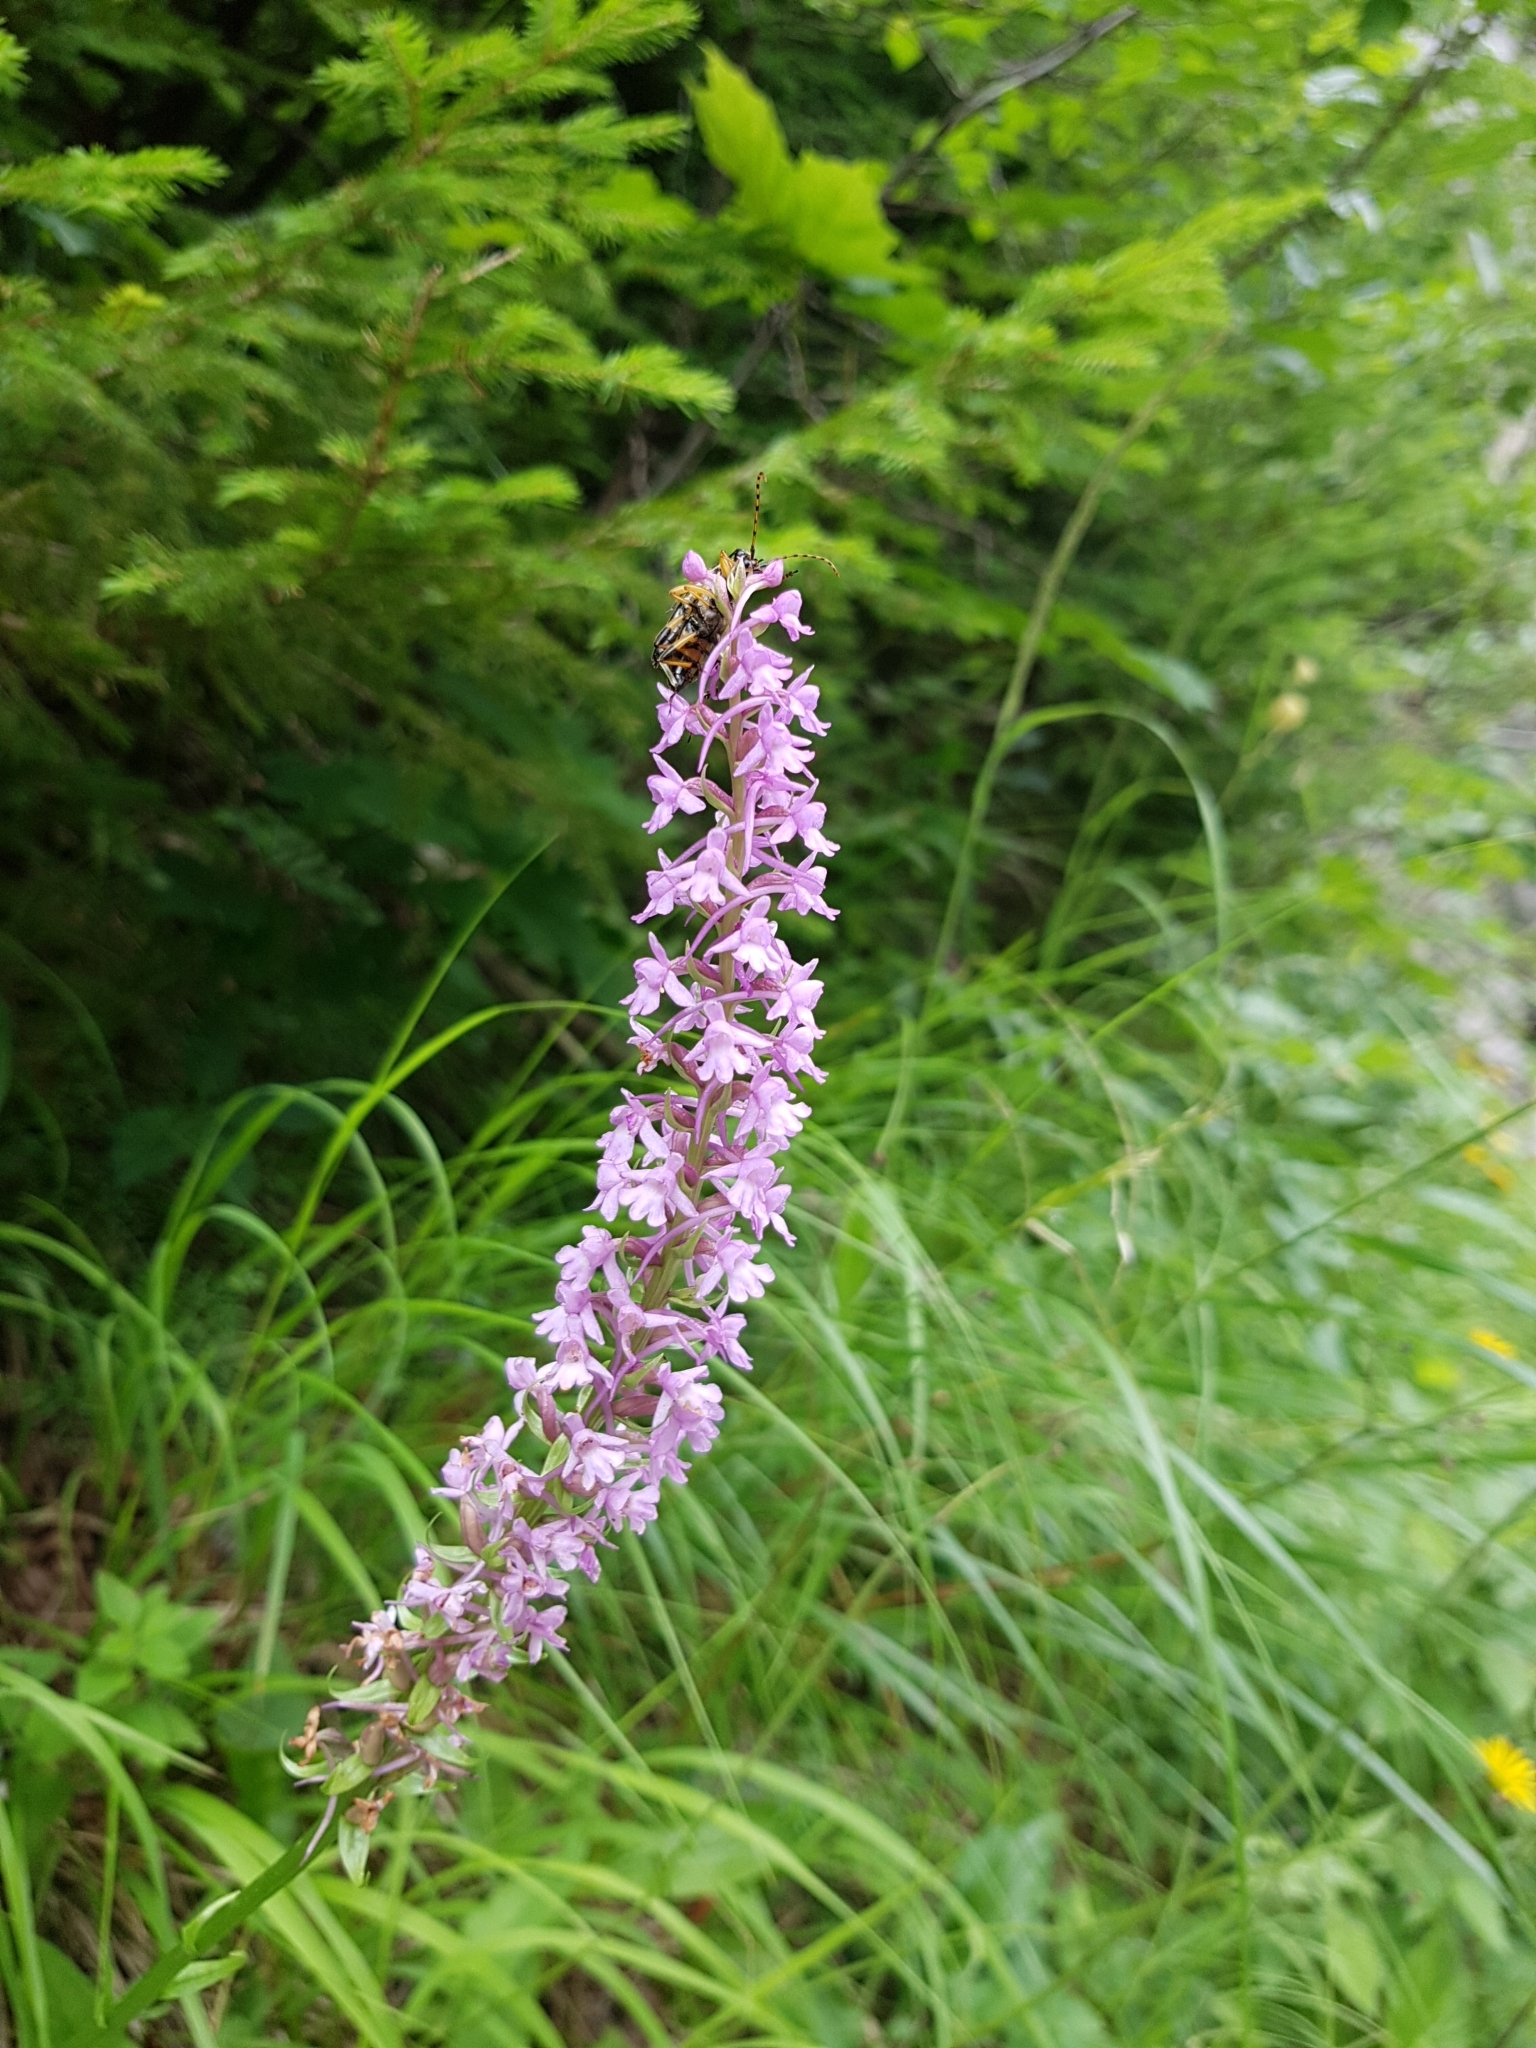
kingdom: Plantae
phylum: Tracheophyta
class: Liliopsida
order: Asparagales
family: Orchidaceae
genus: Gymnadenia
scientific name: Gymnadenia conopsea
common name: Fragrant orchid
